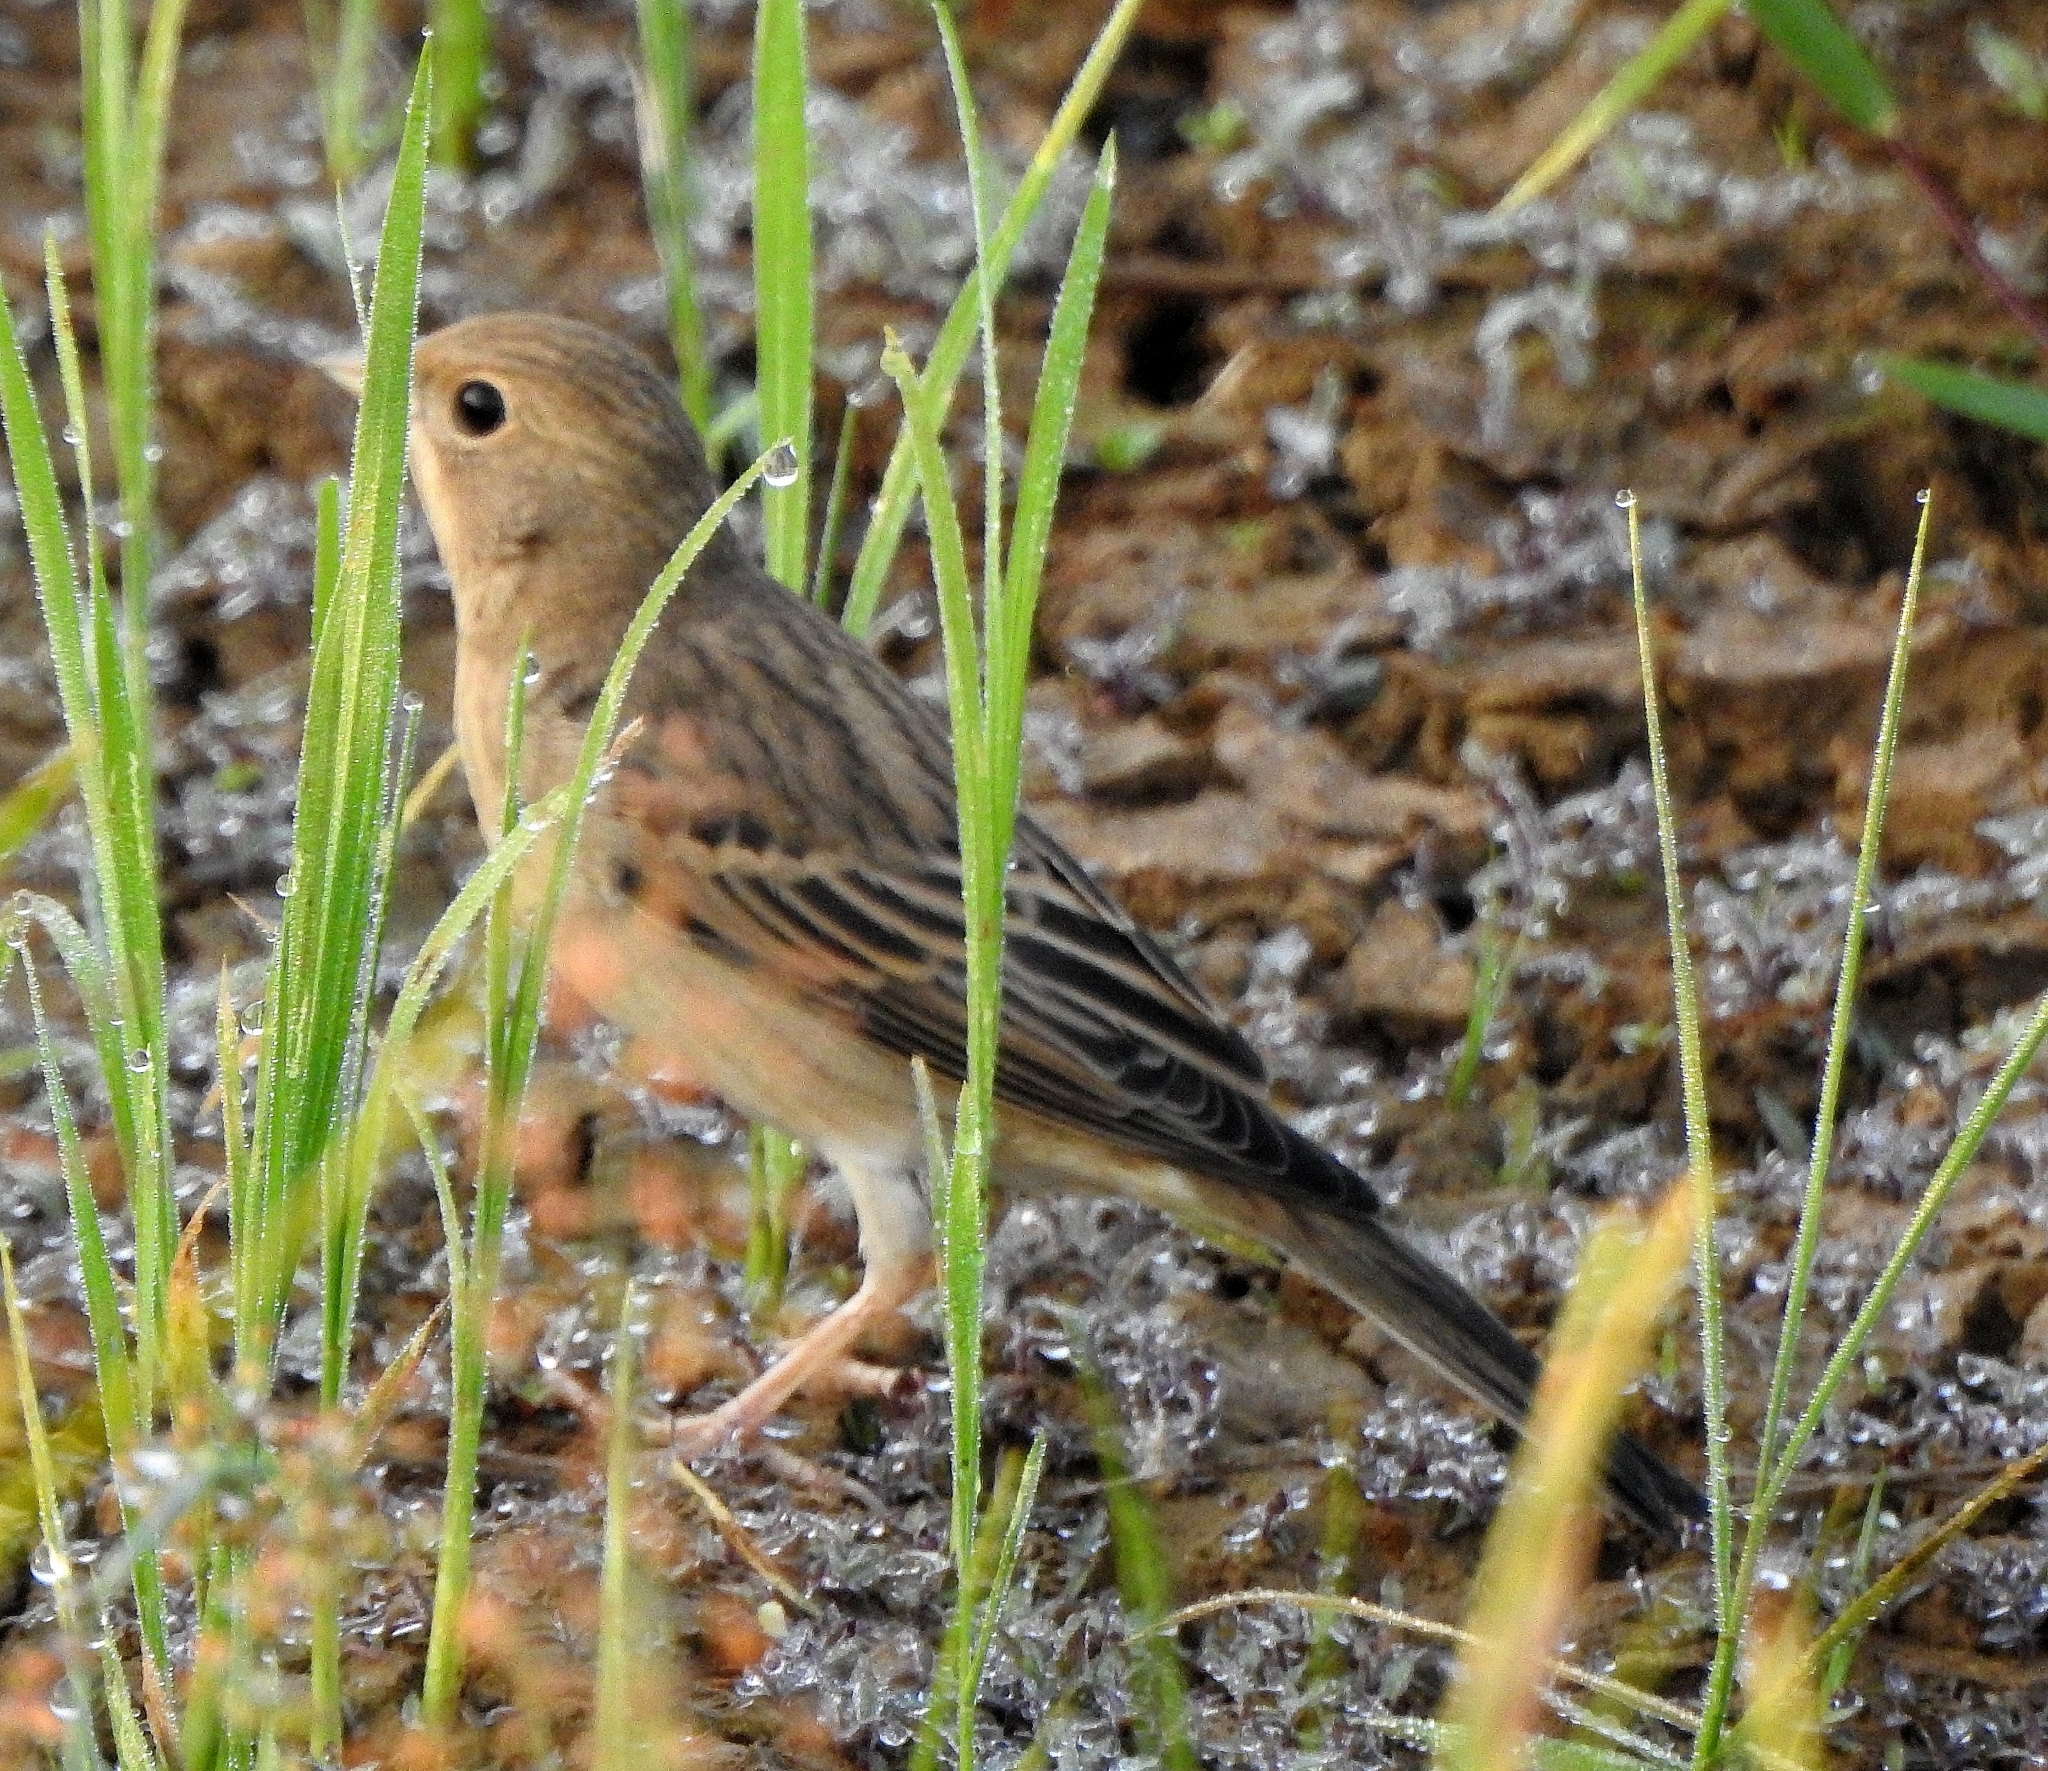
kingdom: Animalia
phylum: Chordata
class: Aves
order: Passeriformes
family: Emberizidae
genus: Emberiza
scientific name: Emberiza bruniceps
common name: Red-headed bunting
